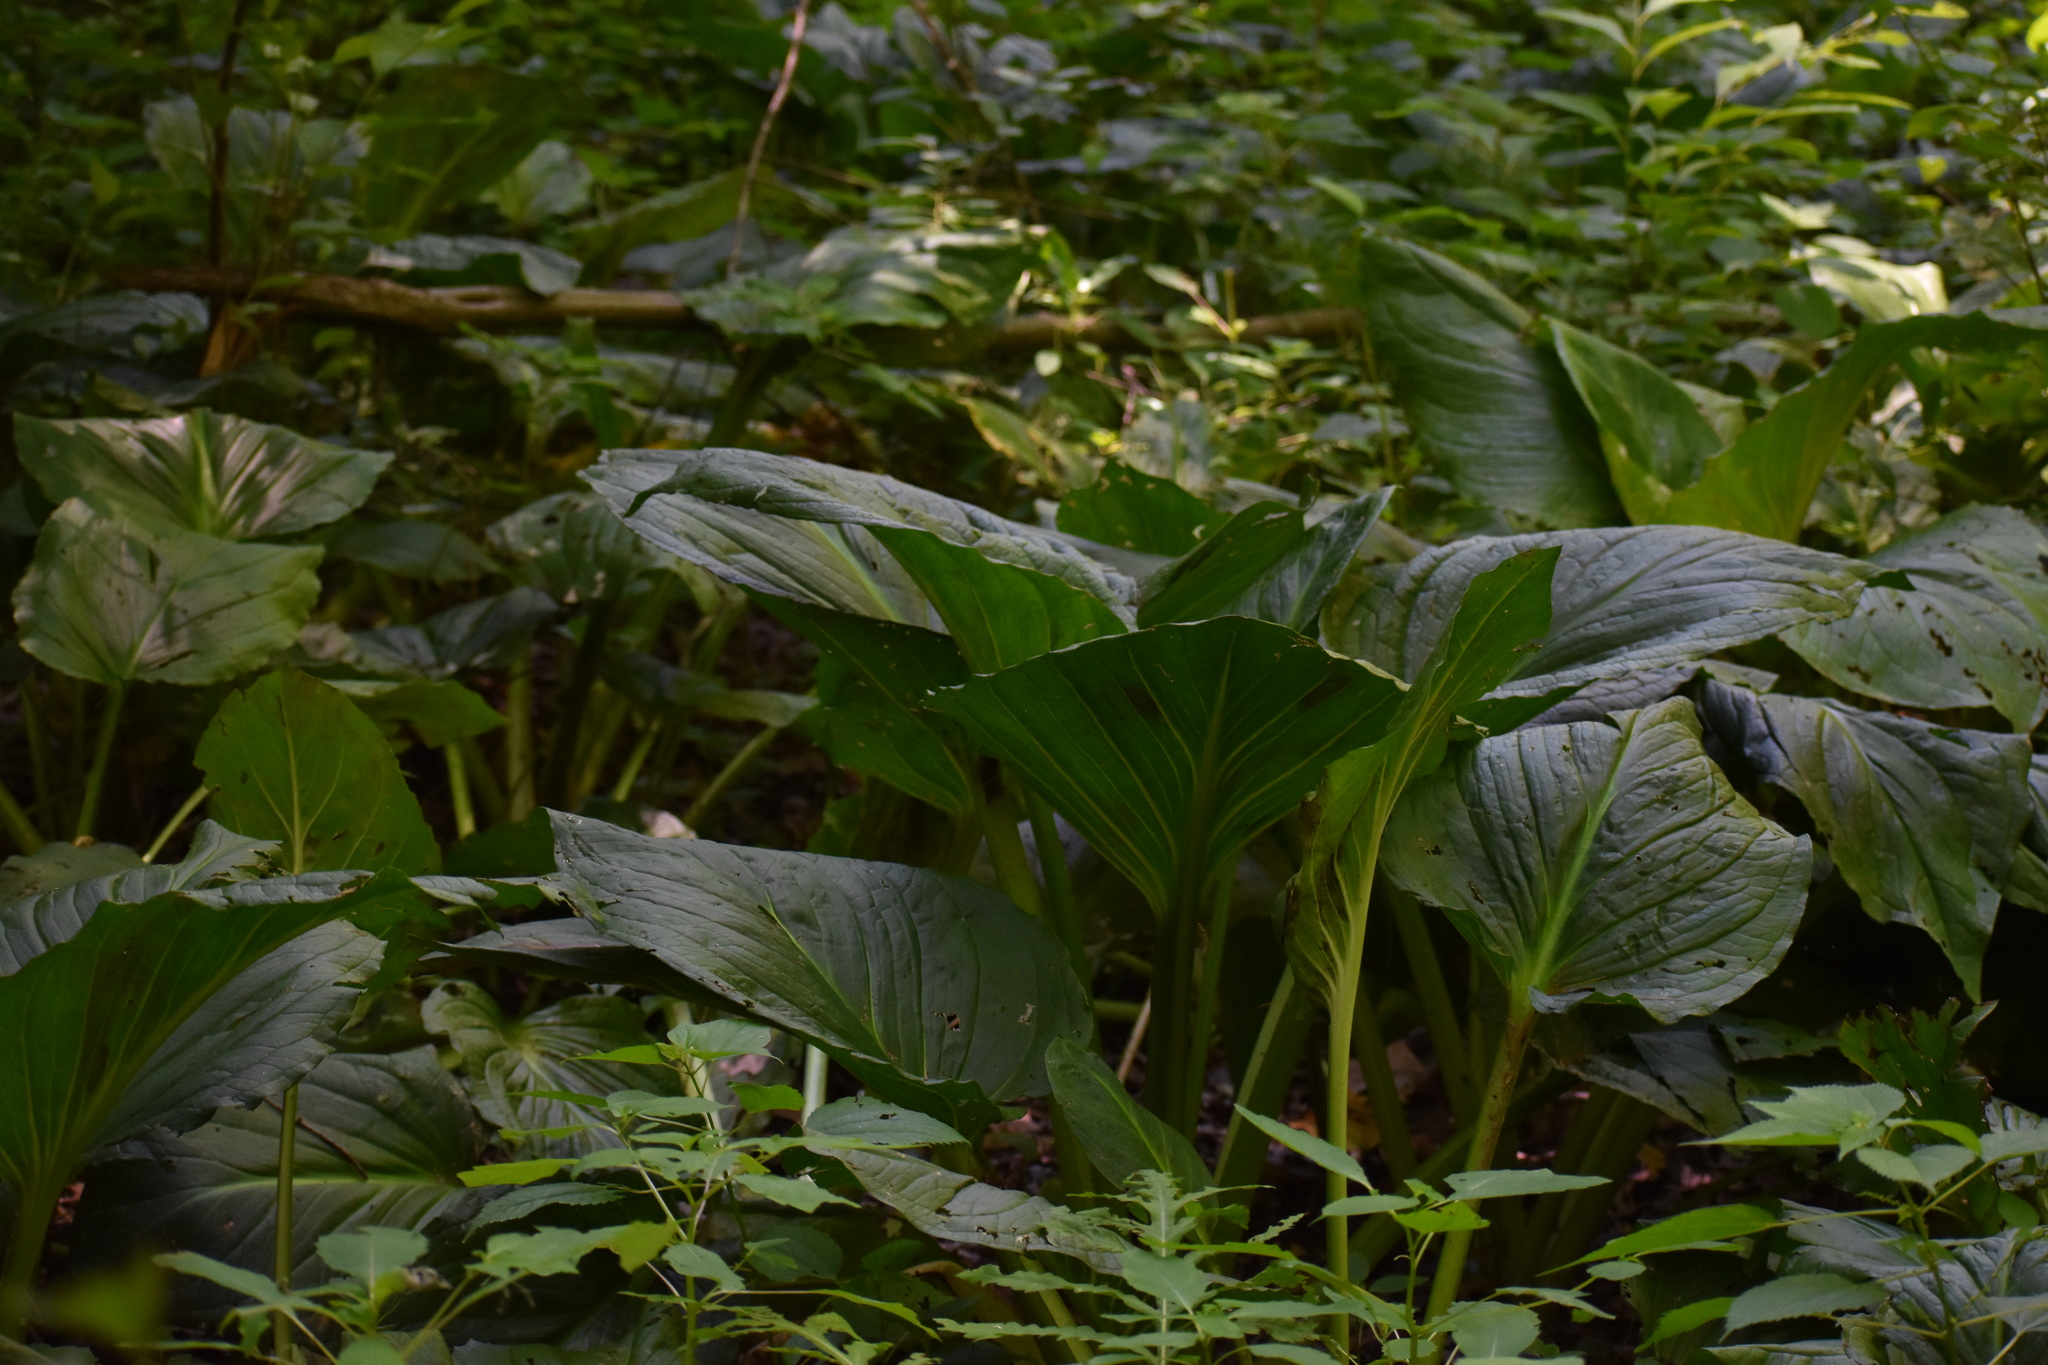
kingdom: Plantae
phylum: Tracheophyta
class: Liliopsida
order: Alismatales
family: Araceae
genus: Symplocarpus
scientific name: Symplocarpus foetidus
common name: Eastern skunk cabbage
